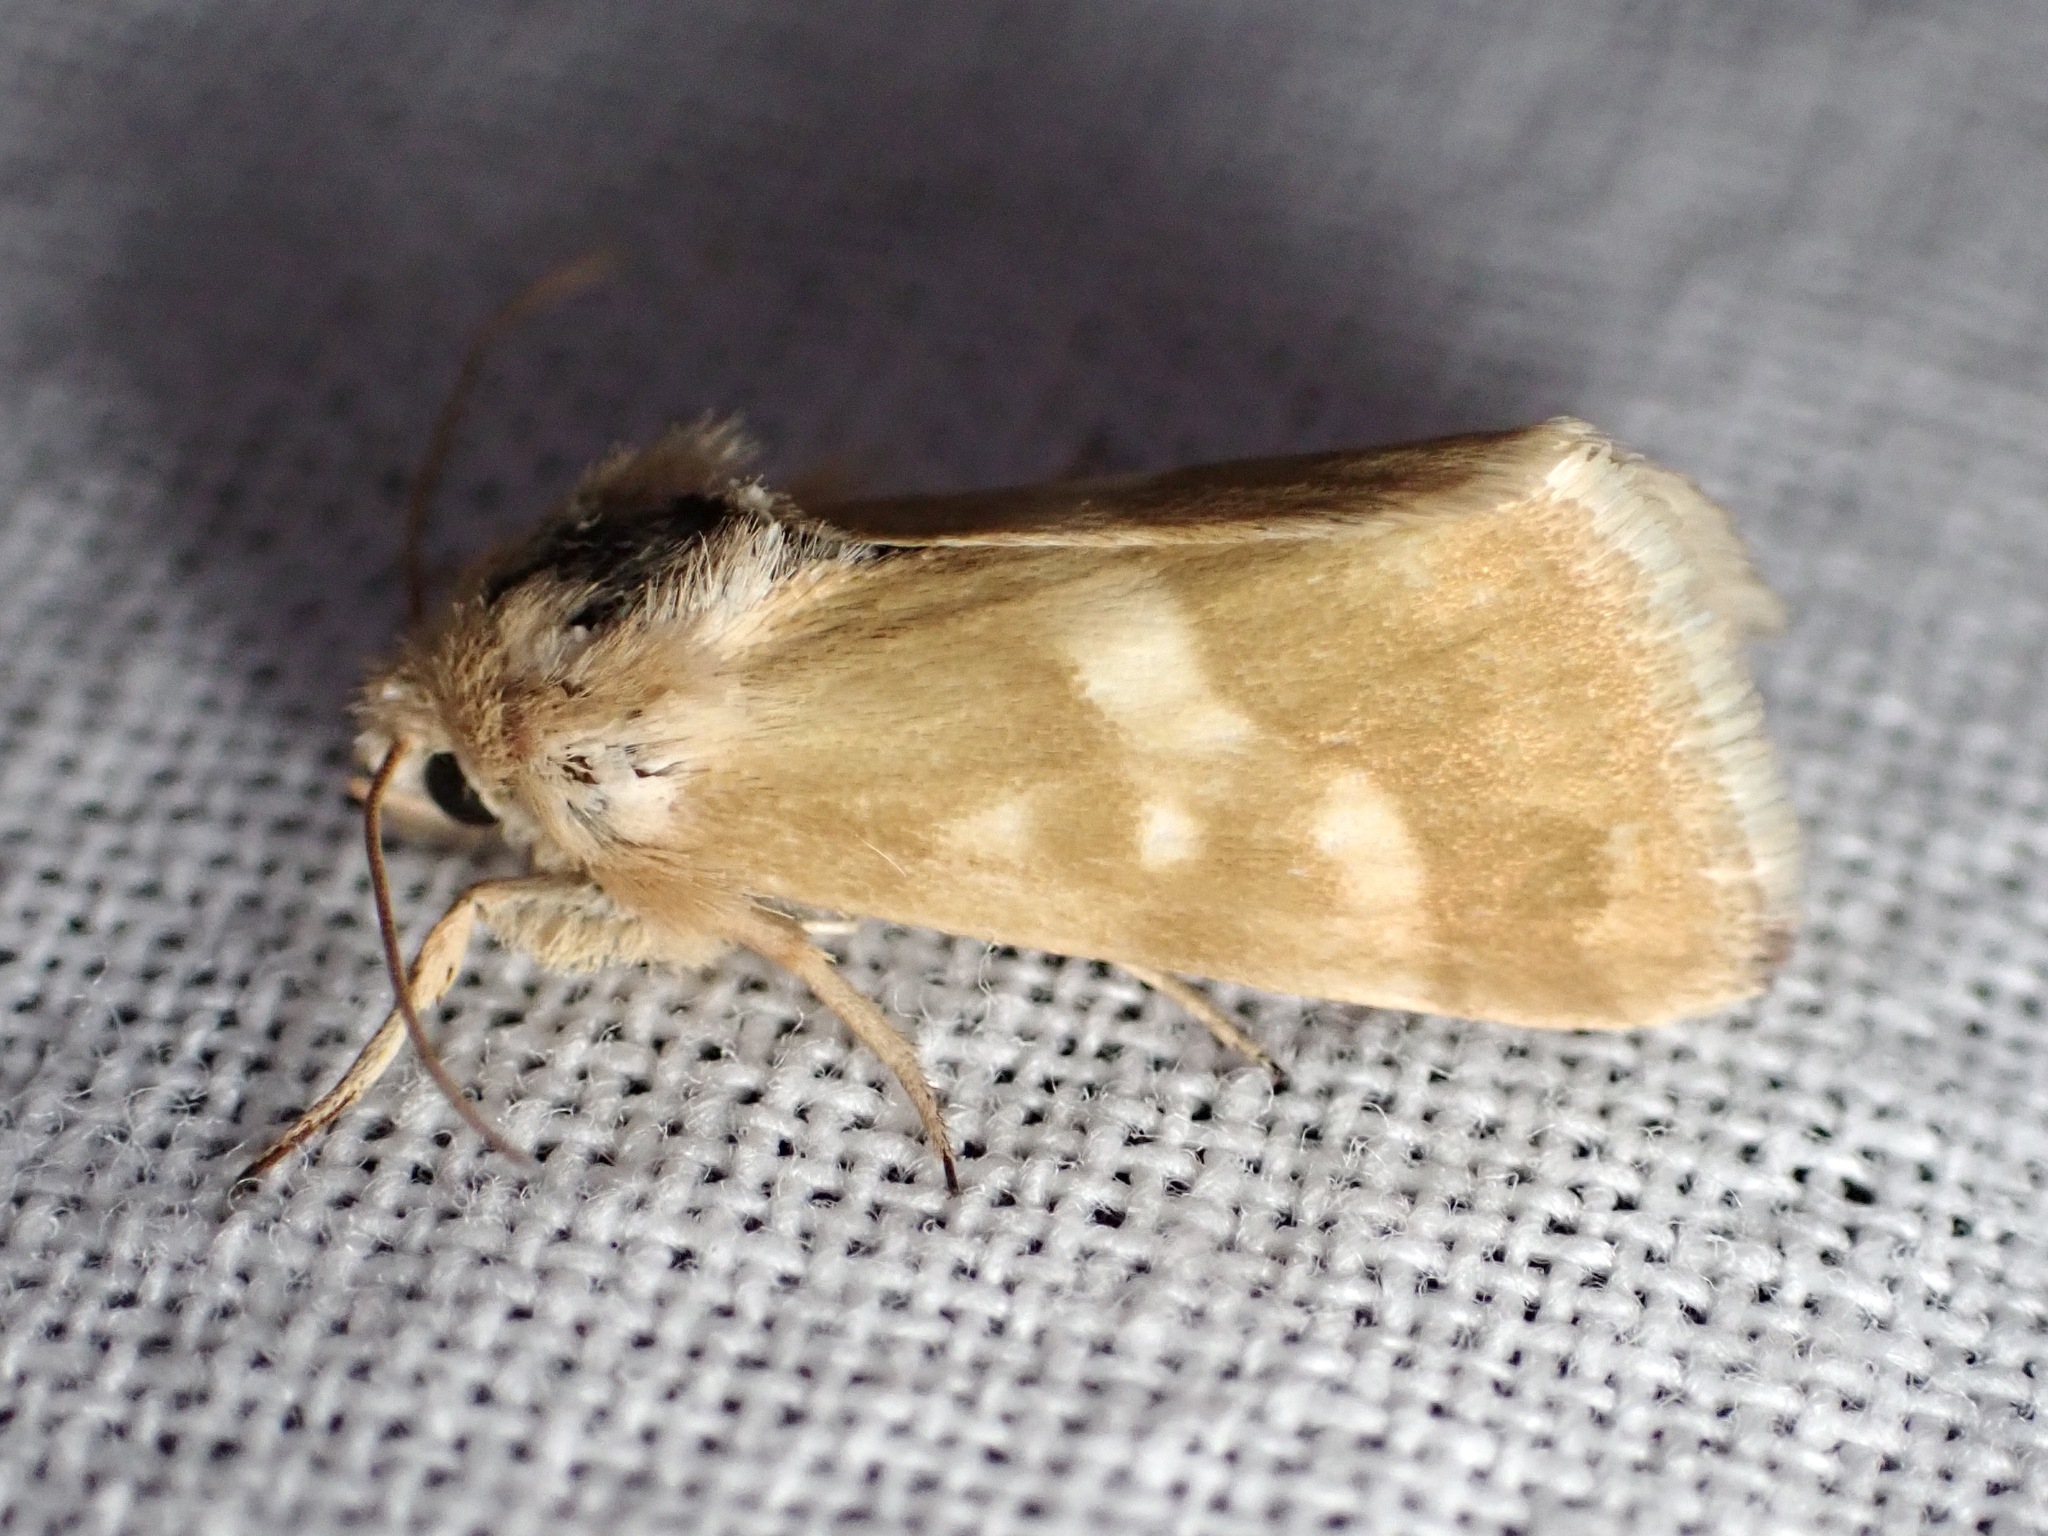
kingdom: Animalia
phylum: Arthropoda
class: Insecta
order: Lepidoptera
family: Noctuidae
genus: Heliothodes
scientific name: Heliothodes diminutiva
